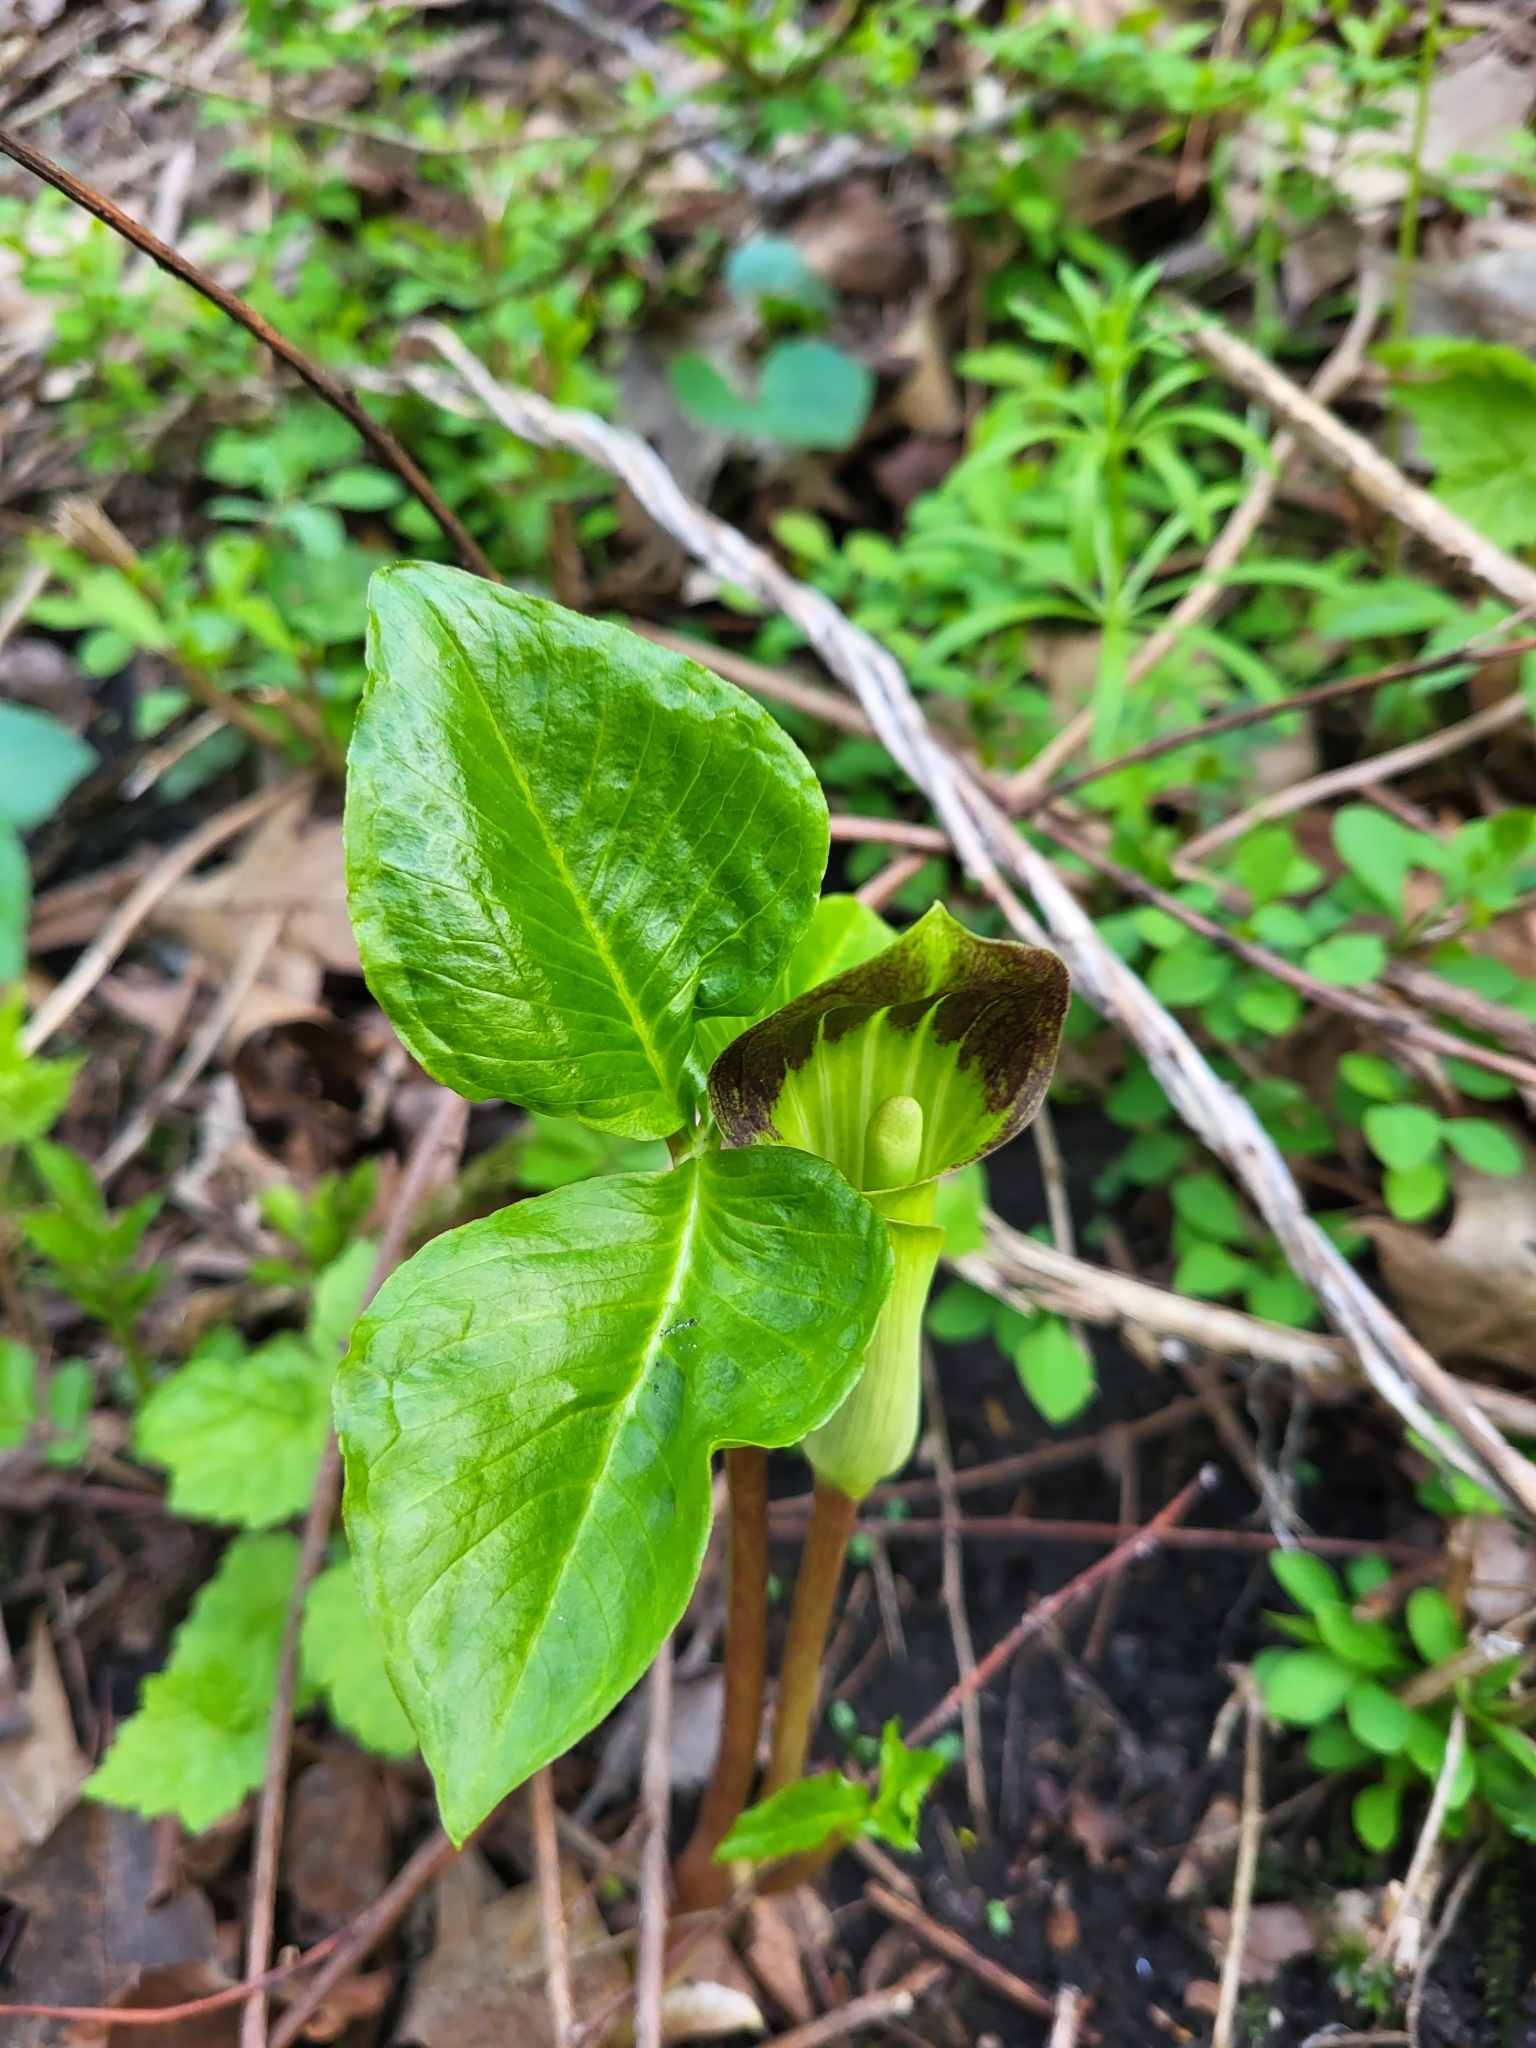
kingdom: Plantae
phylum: Tracheophyta
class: Liliopsida
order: Alismatales
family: Araceae
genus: Arisaema
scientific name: Arisaema triphyllum
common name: Jack-in-the-pulpit
